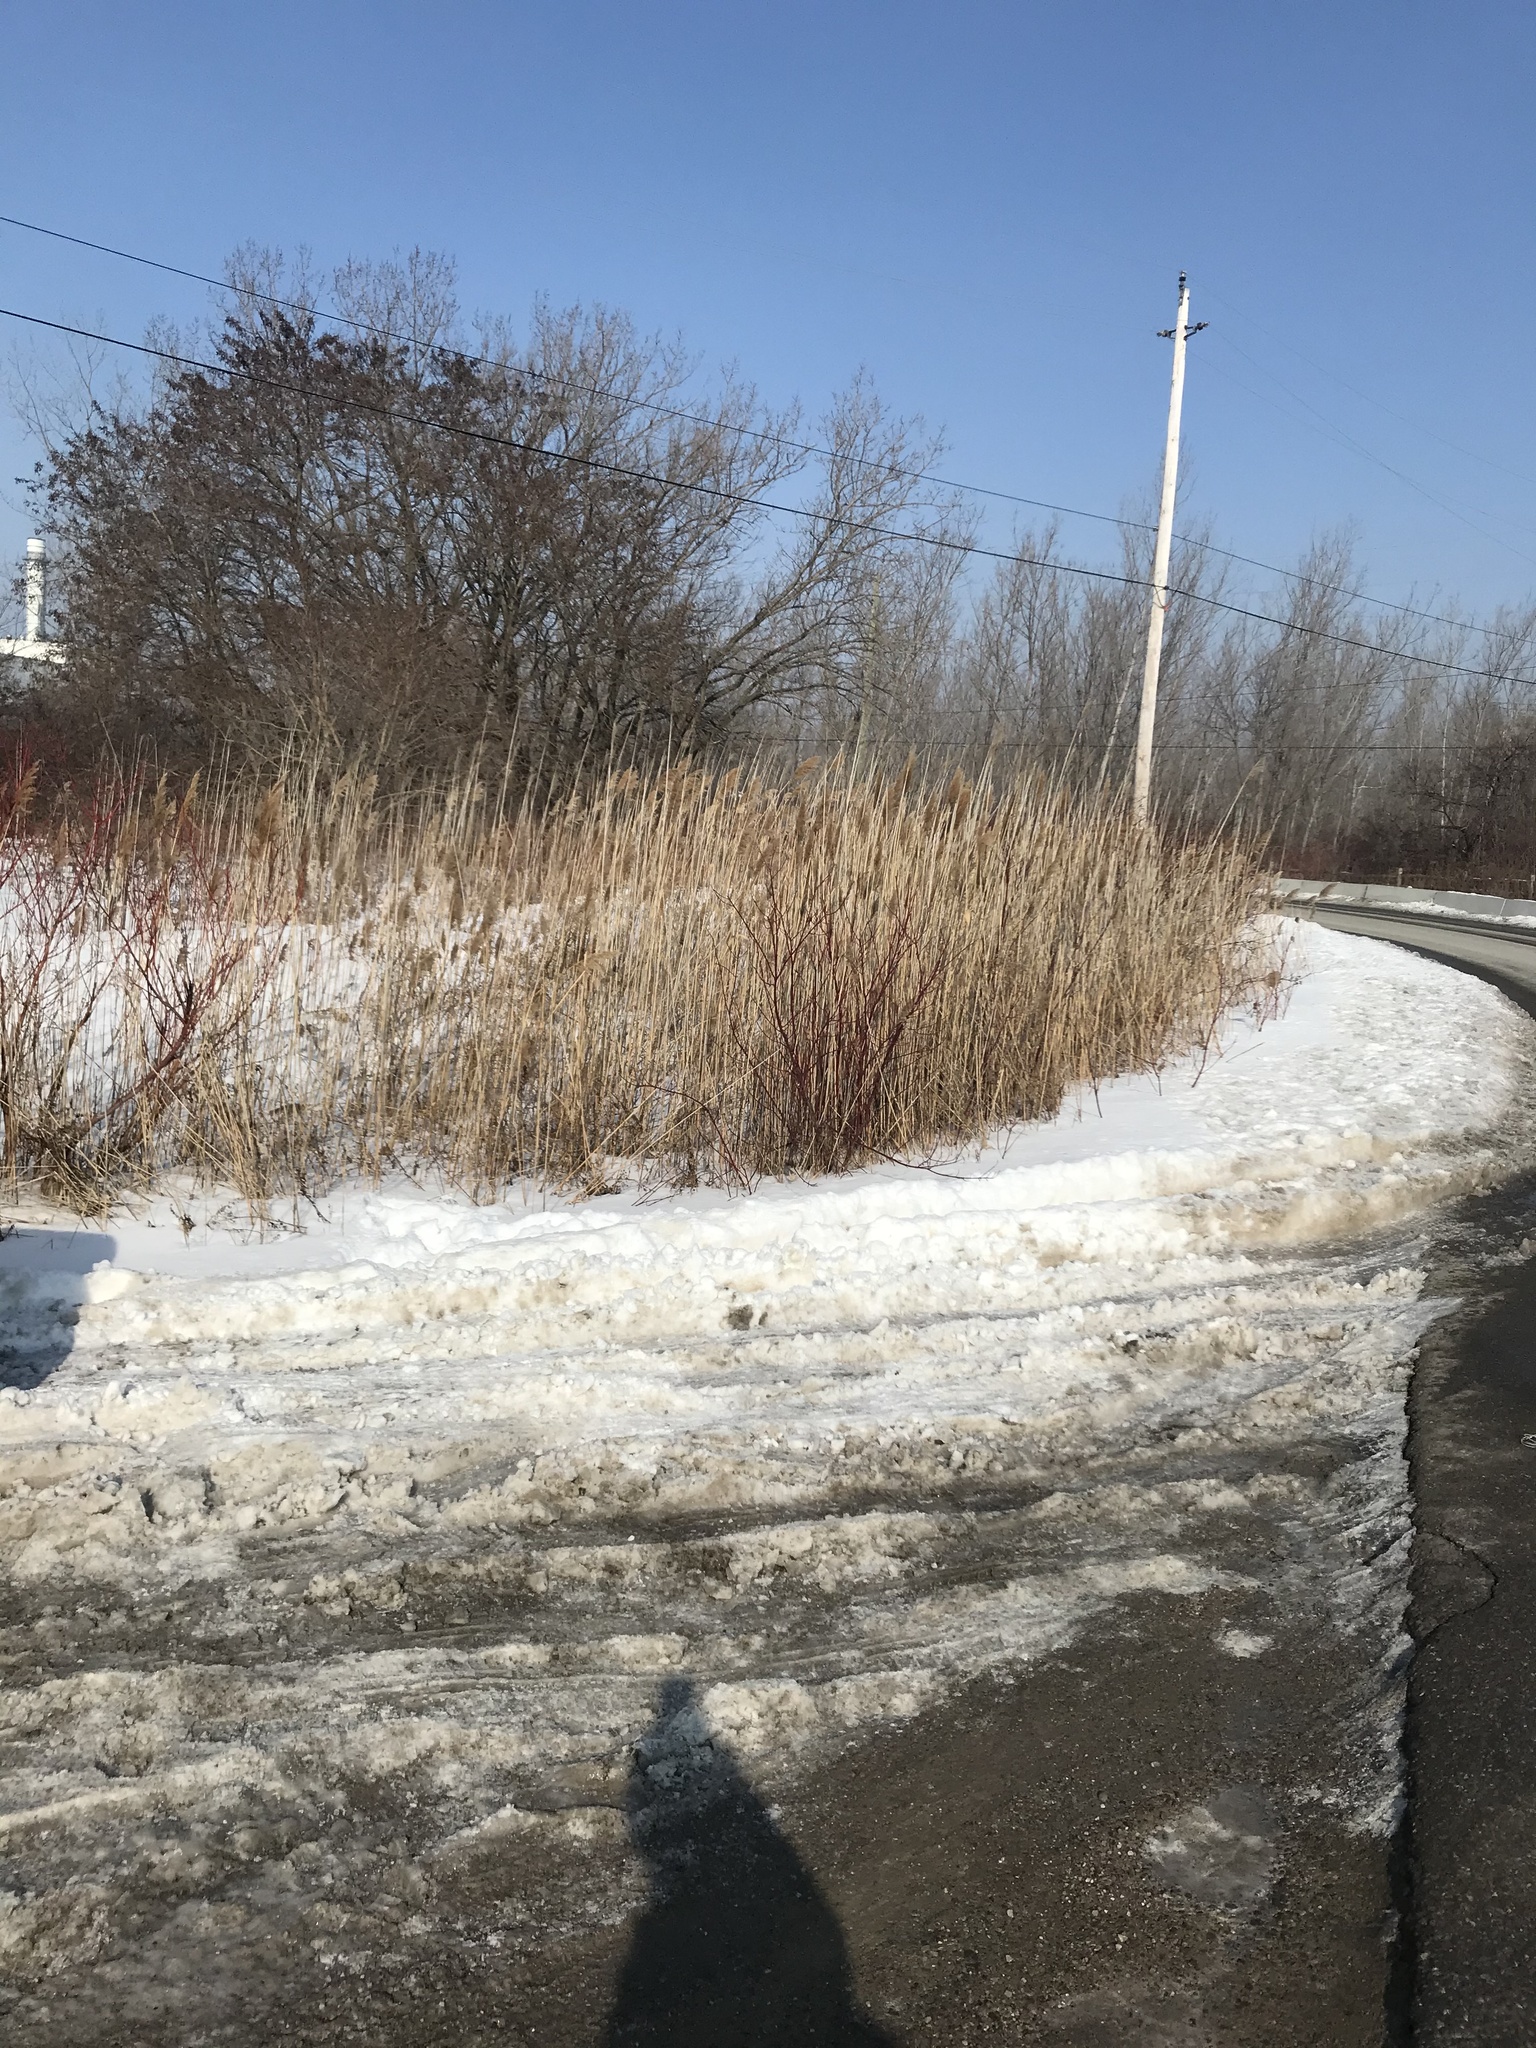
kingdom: Plantae
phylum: Tracheophyta
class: Liliopsida
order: Poales
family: Poaceae
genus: Phragmites
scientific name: Phragmites australis
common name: Common reed
